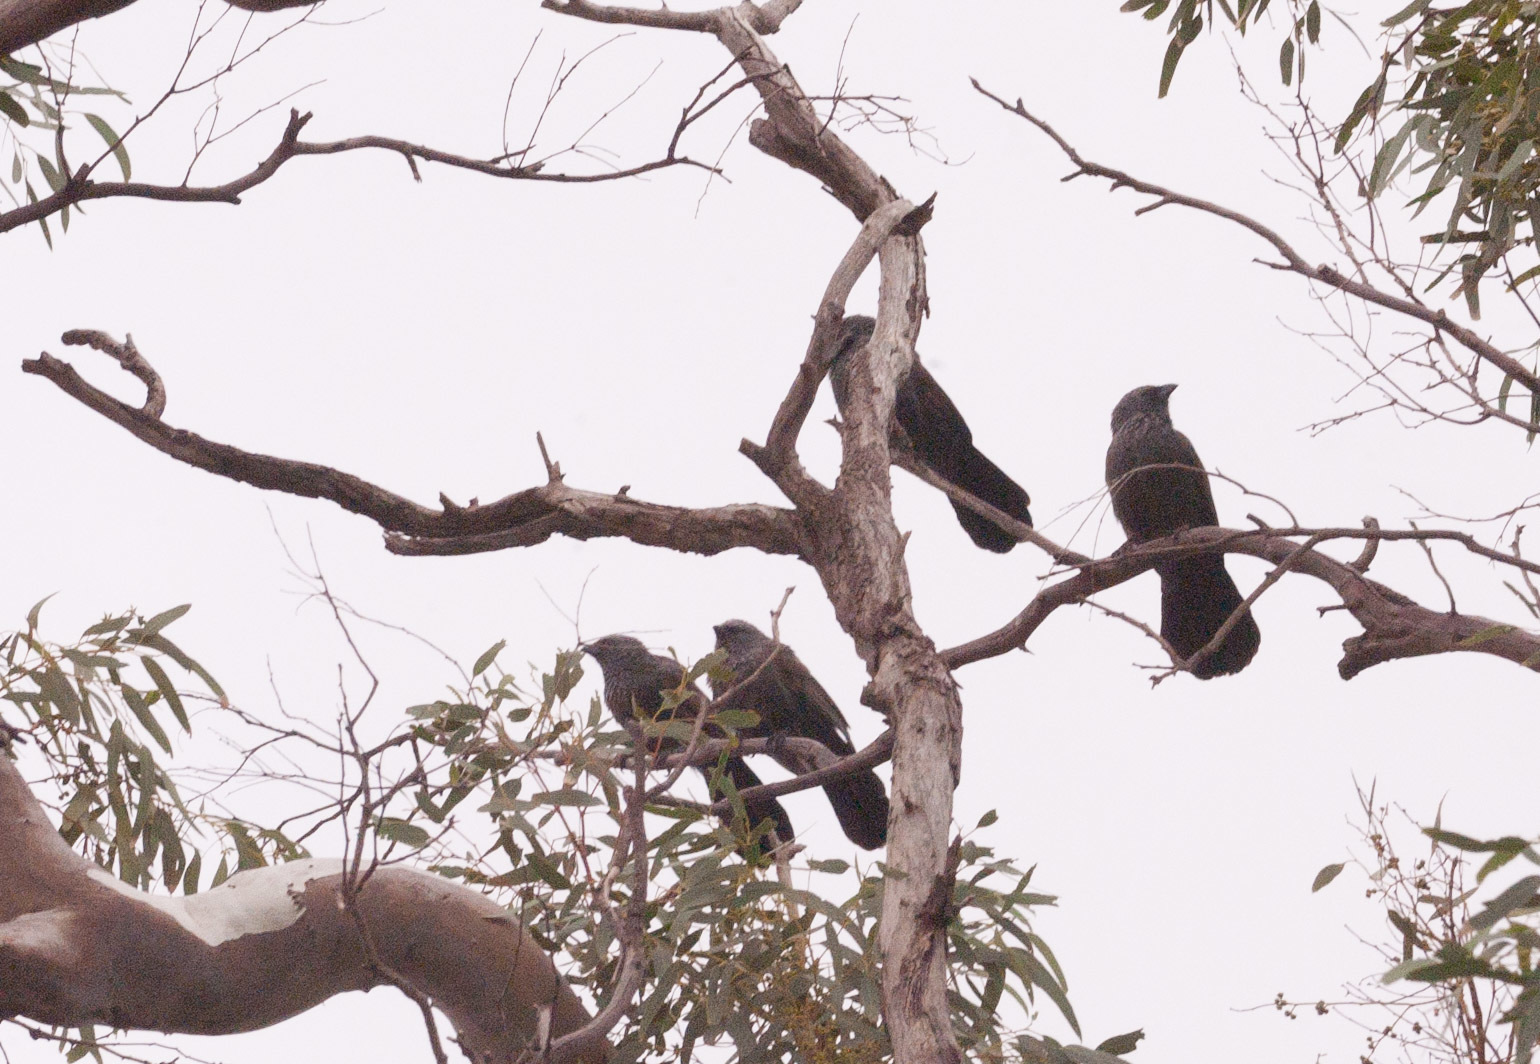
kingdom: Animalia
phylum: Chordata
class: Aves
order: Passeriformes
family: Corcoracidae
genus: Struthidea
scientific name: Struthidea cinerea
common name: Apostlebird
